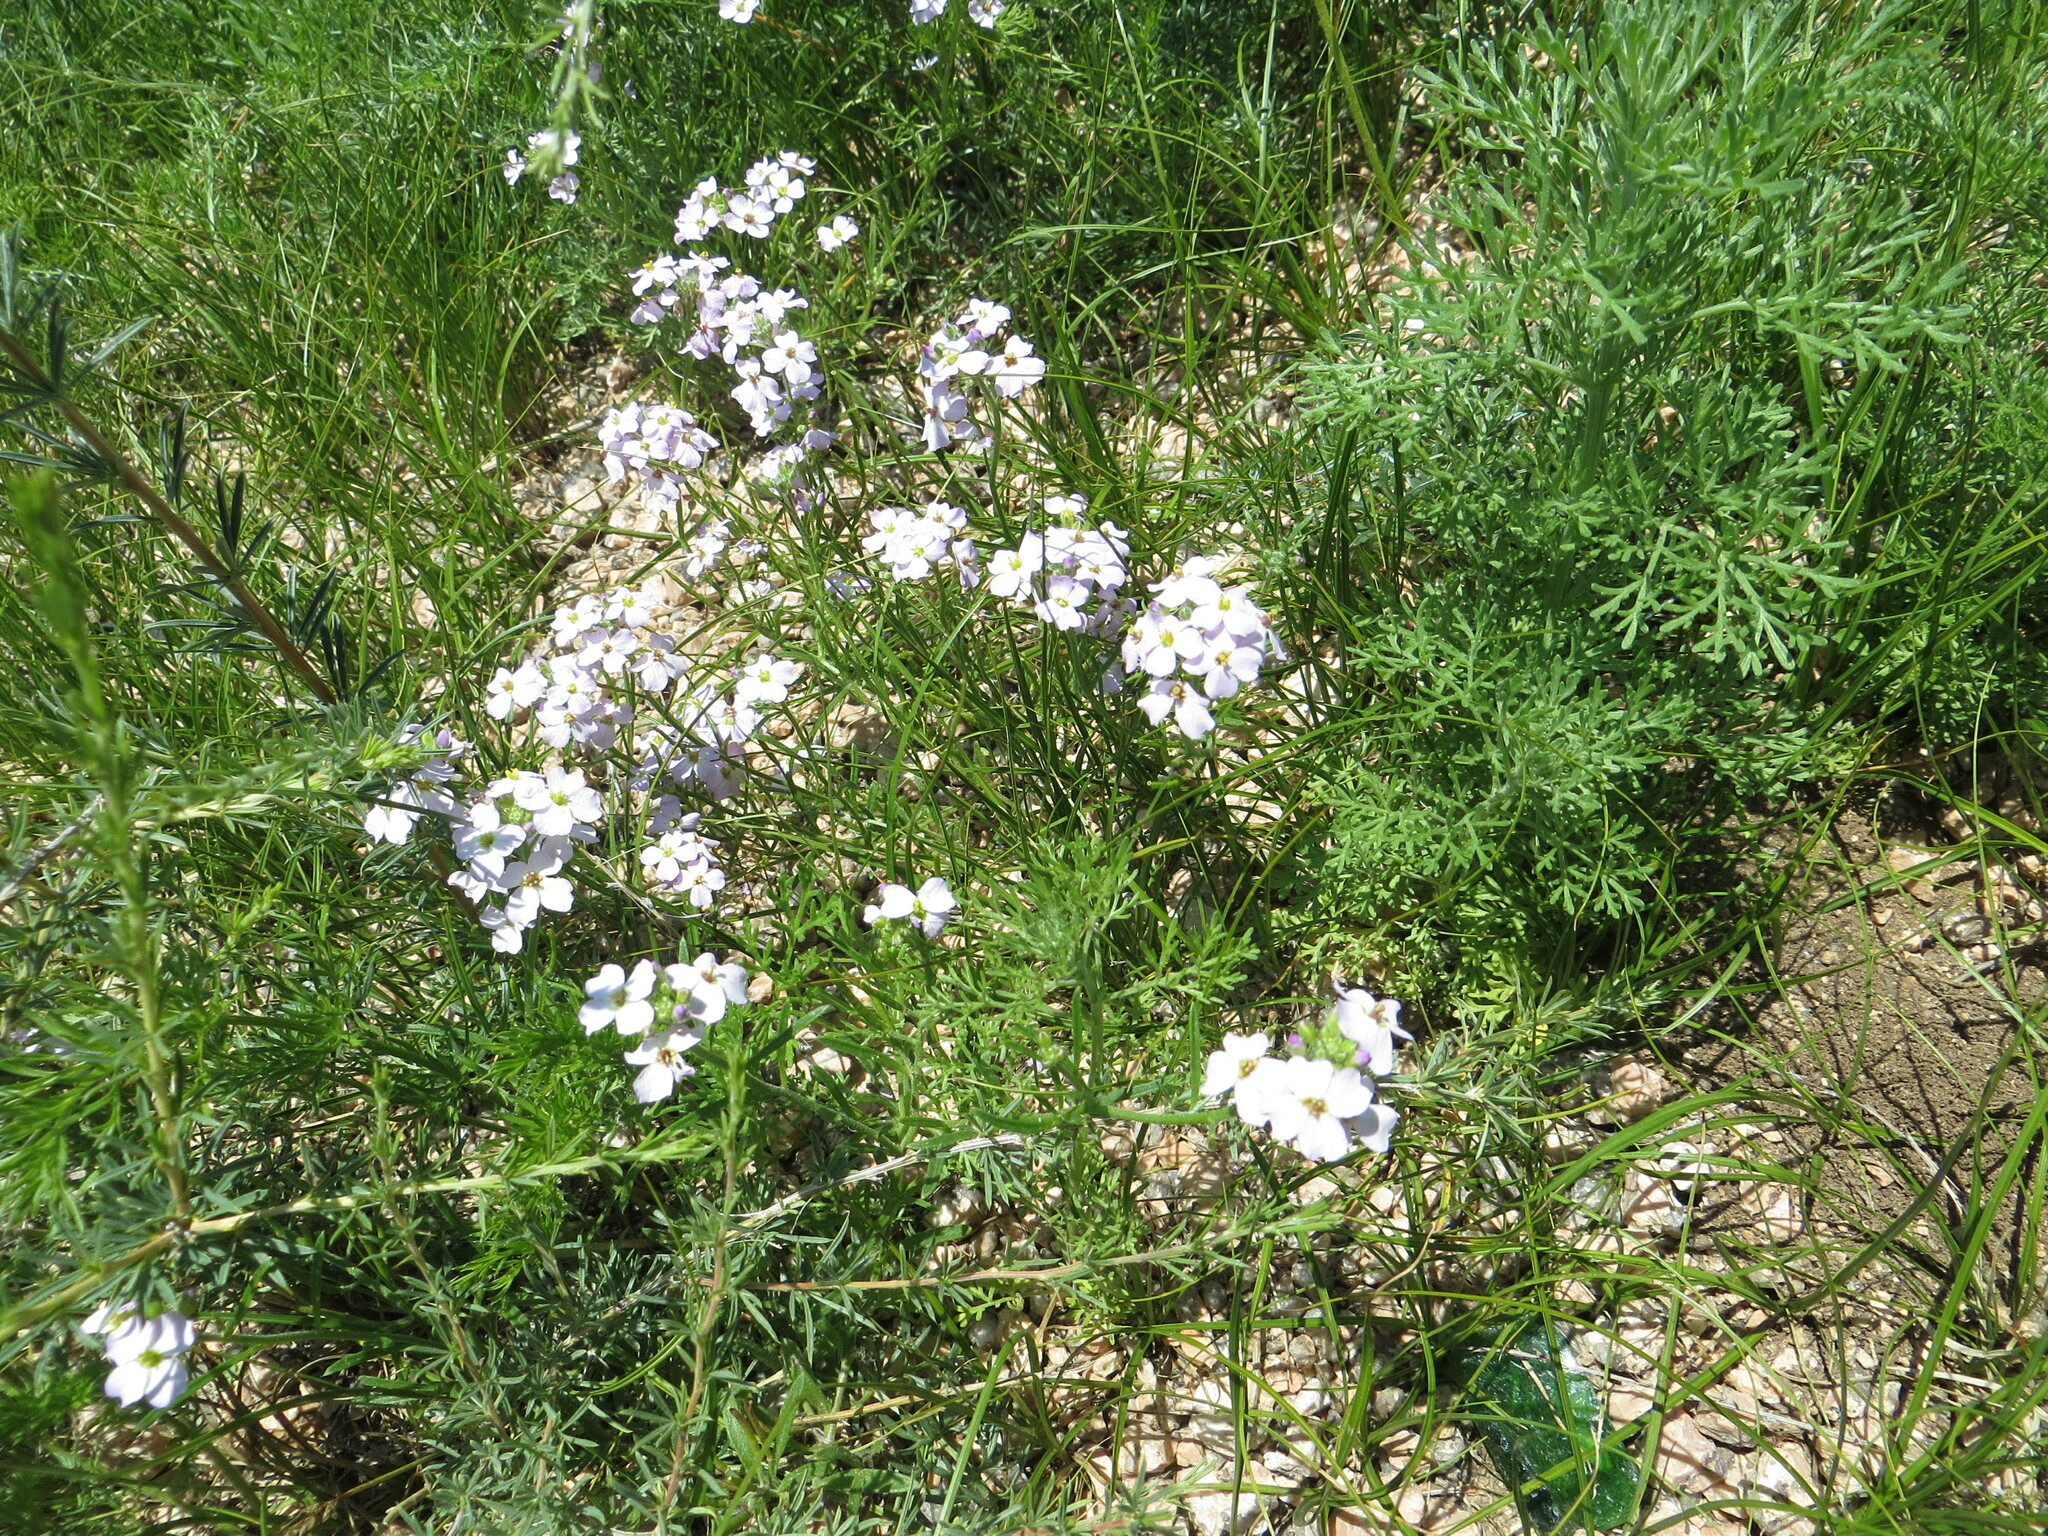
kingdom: Plantae
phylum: Tracheophyta
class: Magnoliopsida
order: Brassicales
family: Brassicaceae
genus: Dontostemon
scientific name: Dontostemon integrifolius
